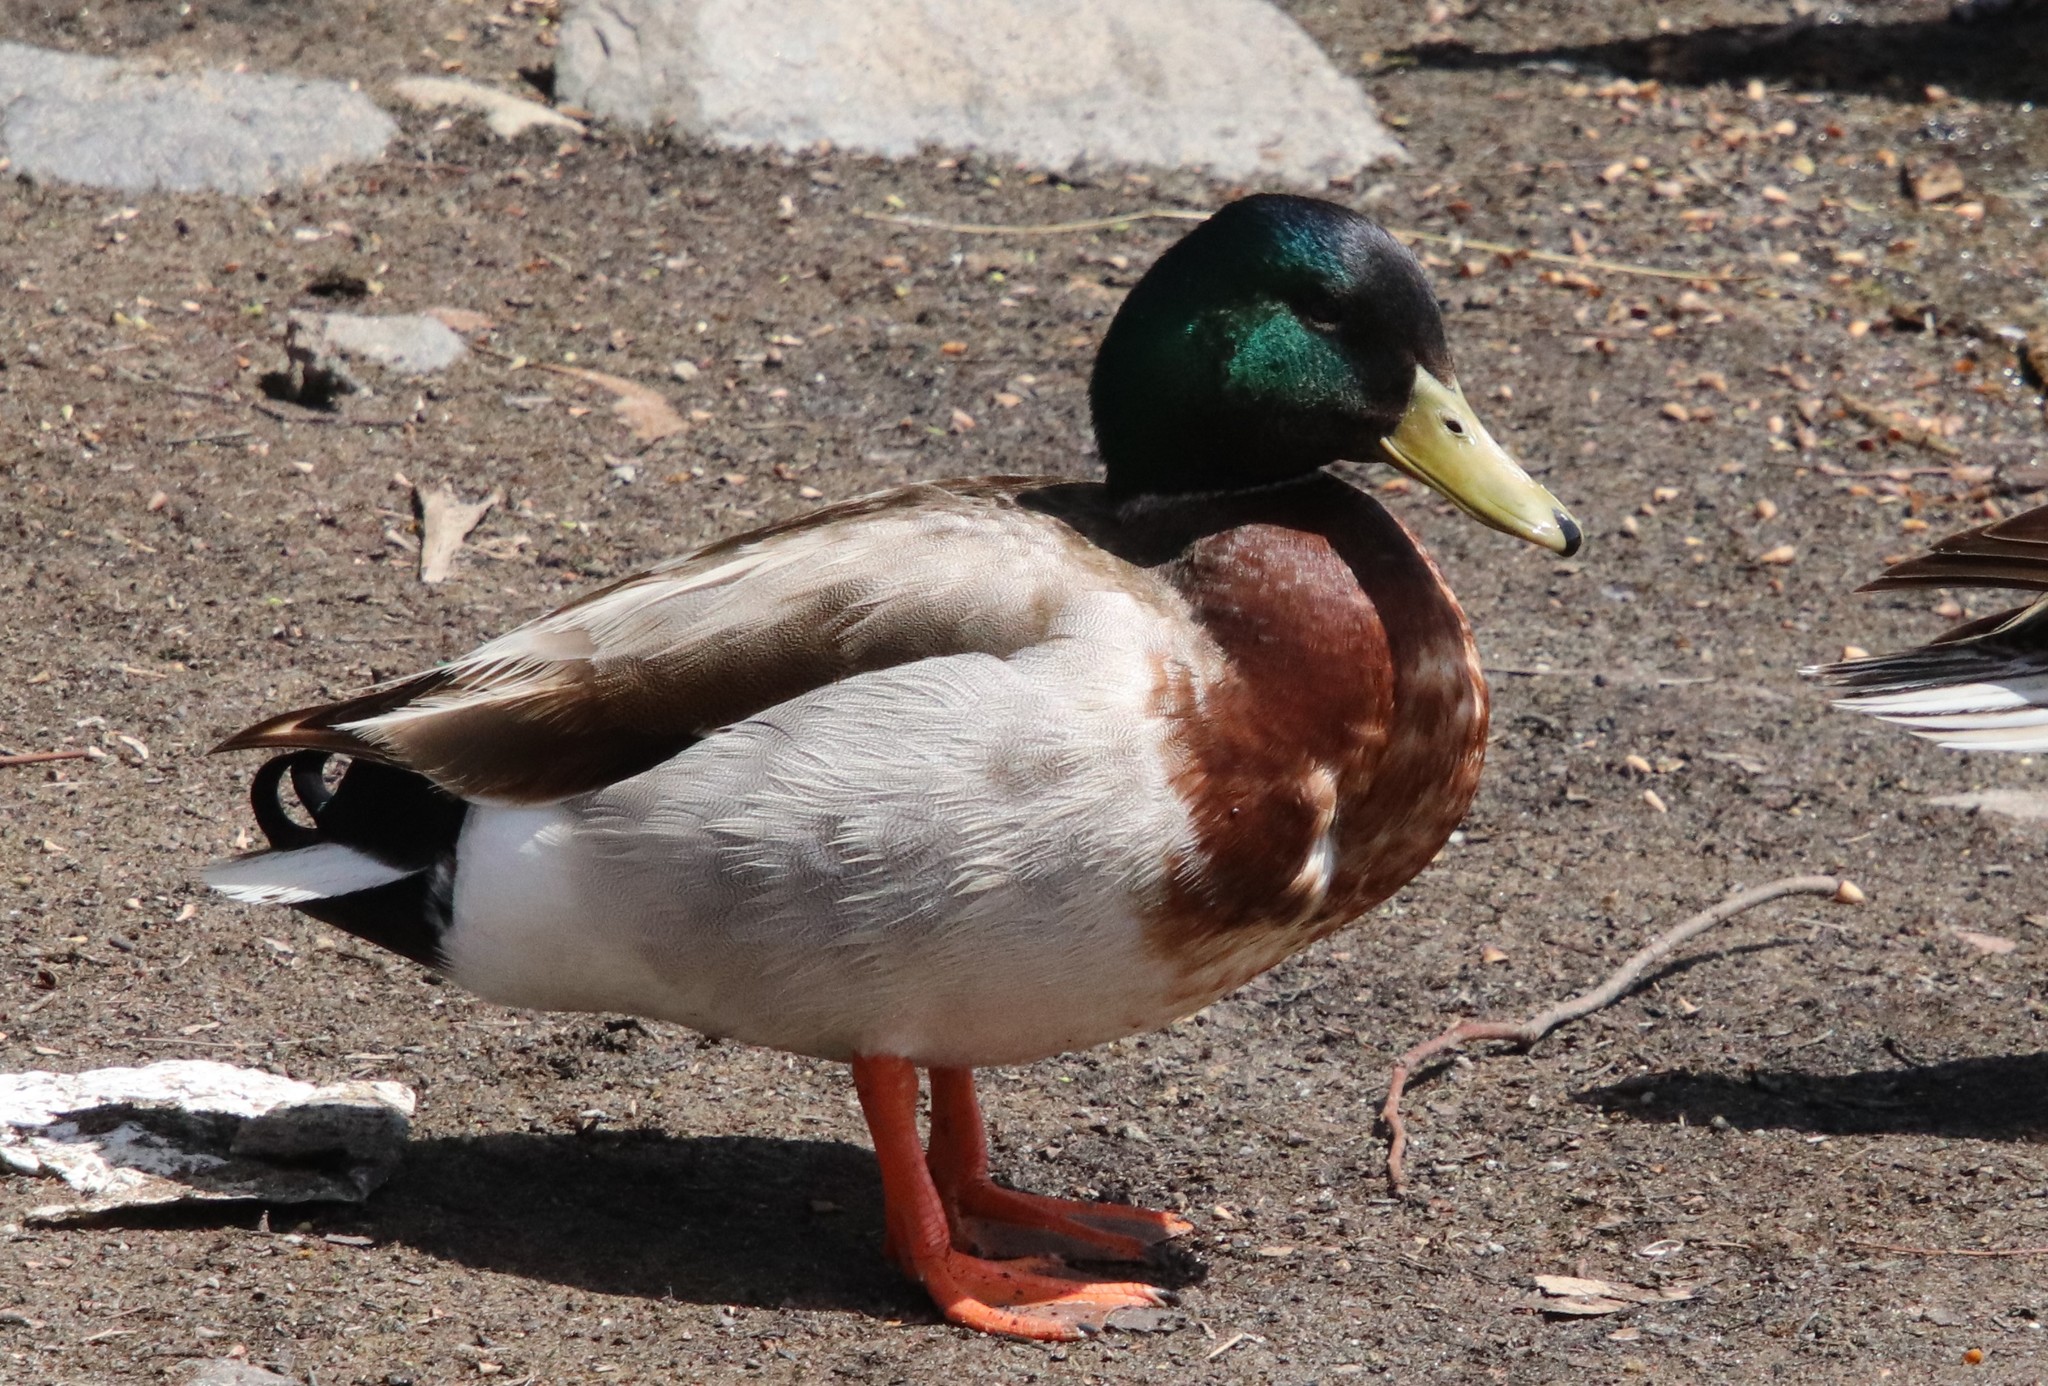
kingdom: Animalia
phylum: Chordata
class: Aves
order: Anseriformes
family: Anatidae
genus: Anas
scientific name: Anas platyrhynchos
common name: Mallard
